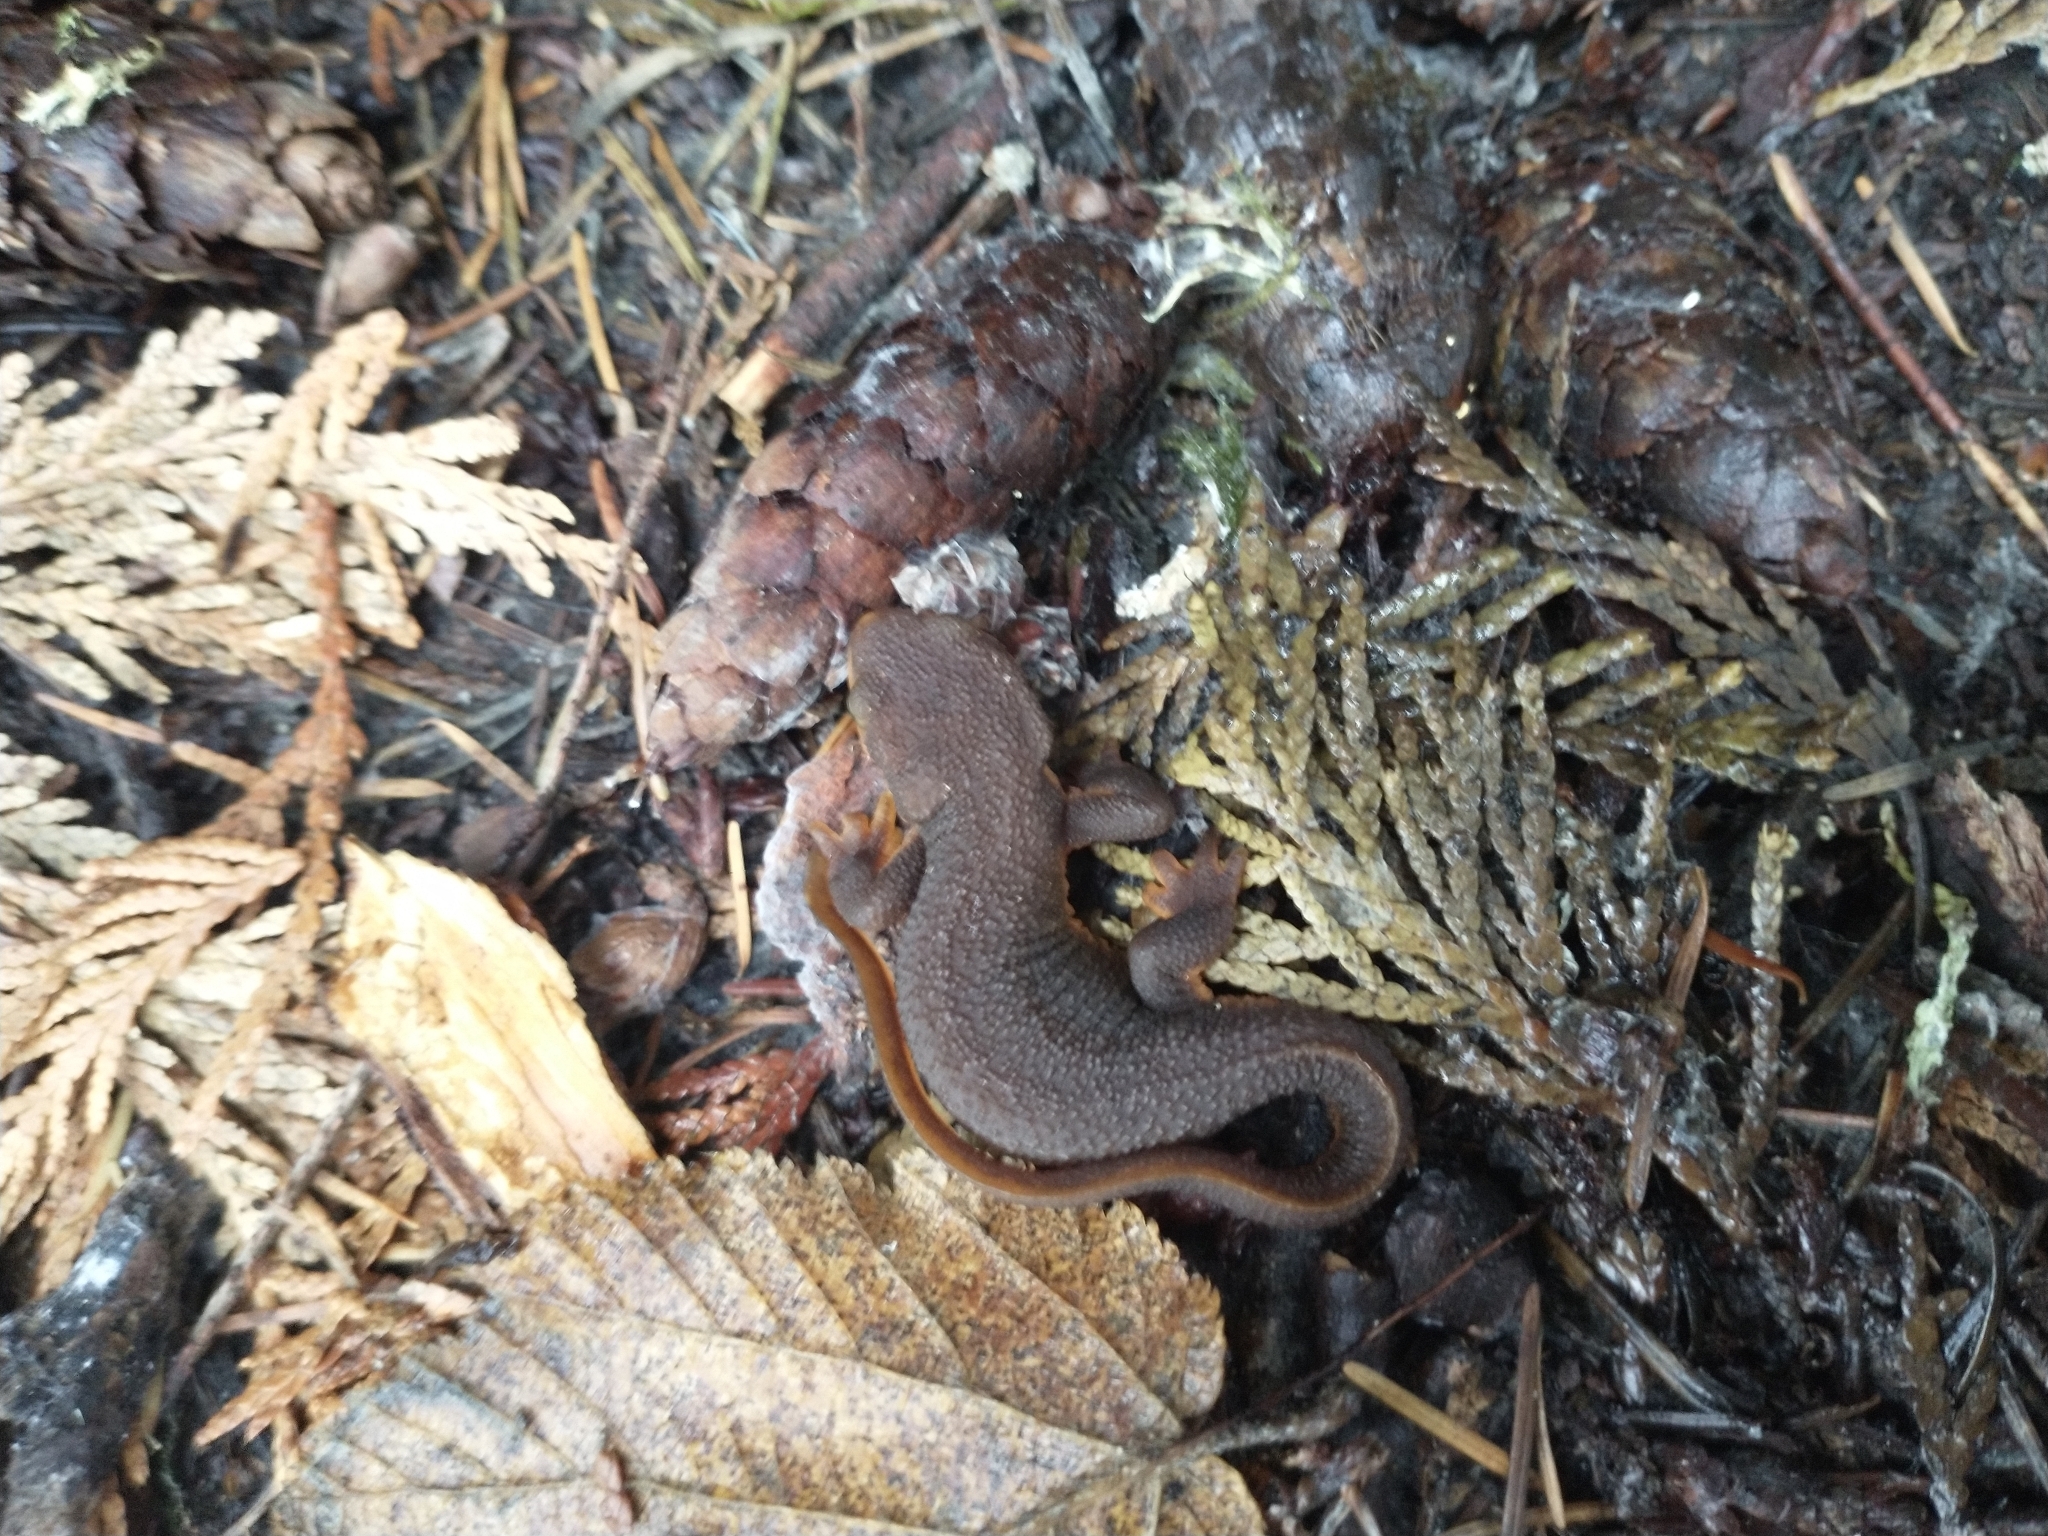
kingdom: Animalia
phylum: Chordata
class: Amphibia
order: Caudata
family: Salamandridae
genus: Taricha
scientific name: Taricha granulosa
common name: Roughskin newt
